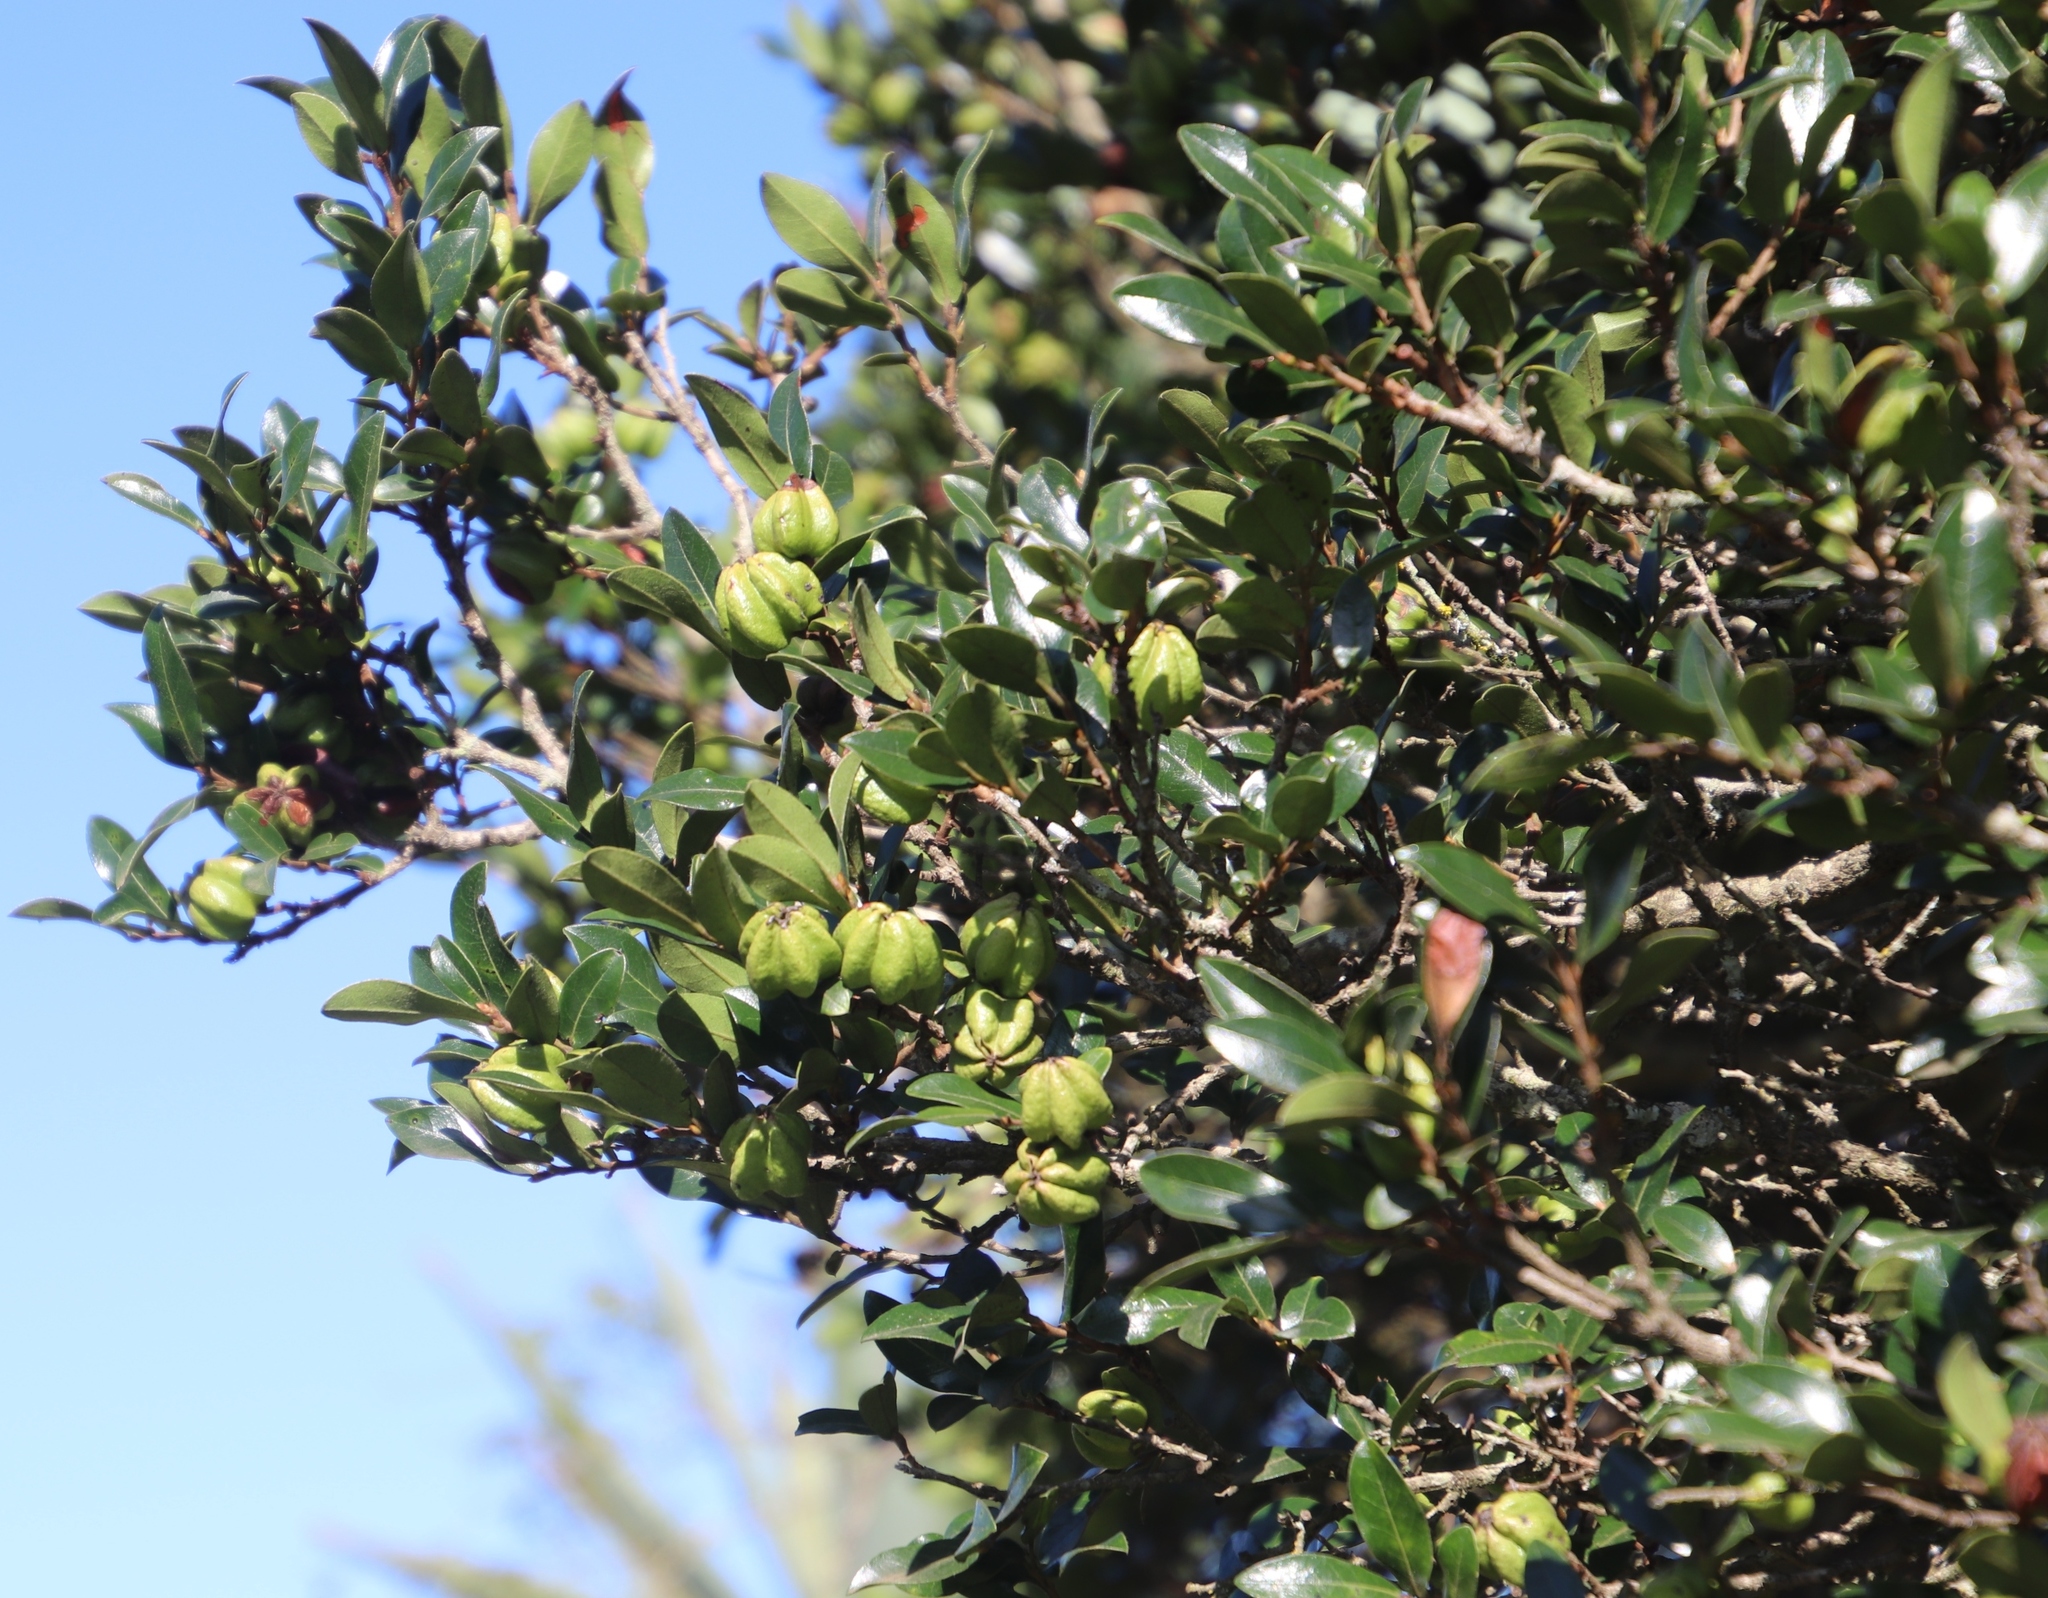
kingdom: Plantae
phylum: Tracheophyta
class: Magnoliopsida
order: Ericales
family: Ebenaceae
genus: Diospyros
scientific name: Diospyros whyteana
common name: Bladder-nut
